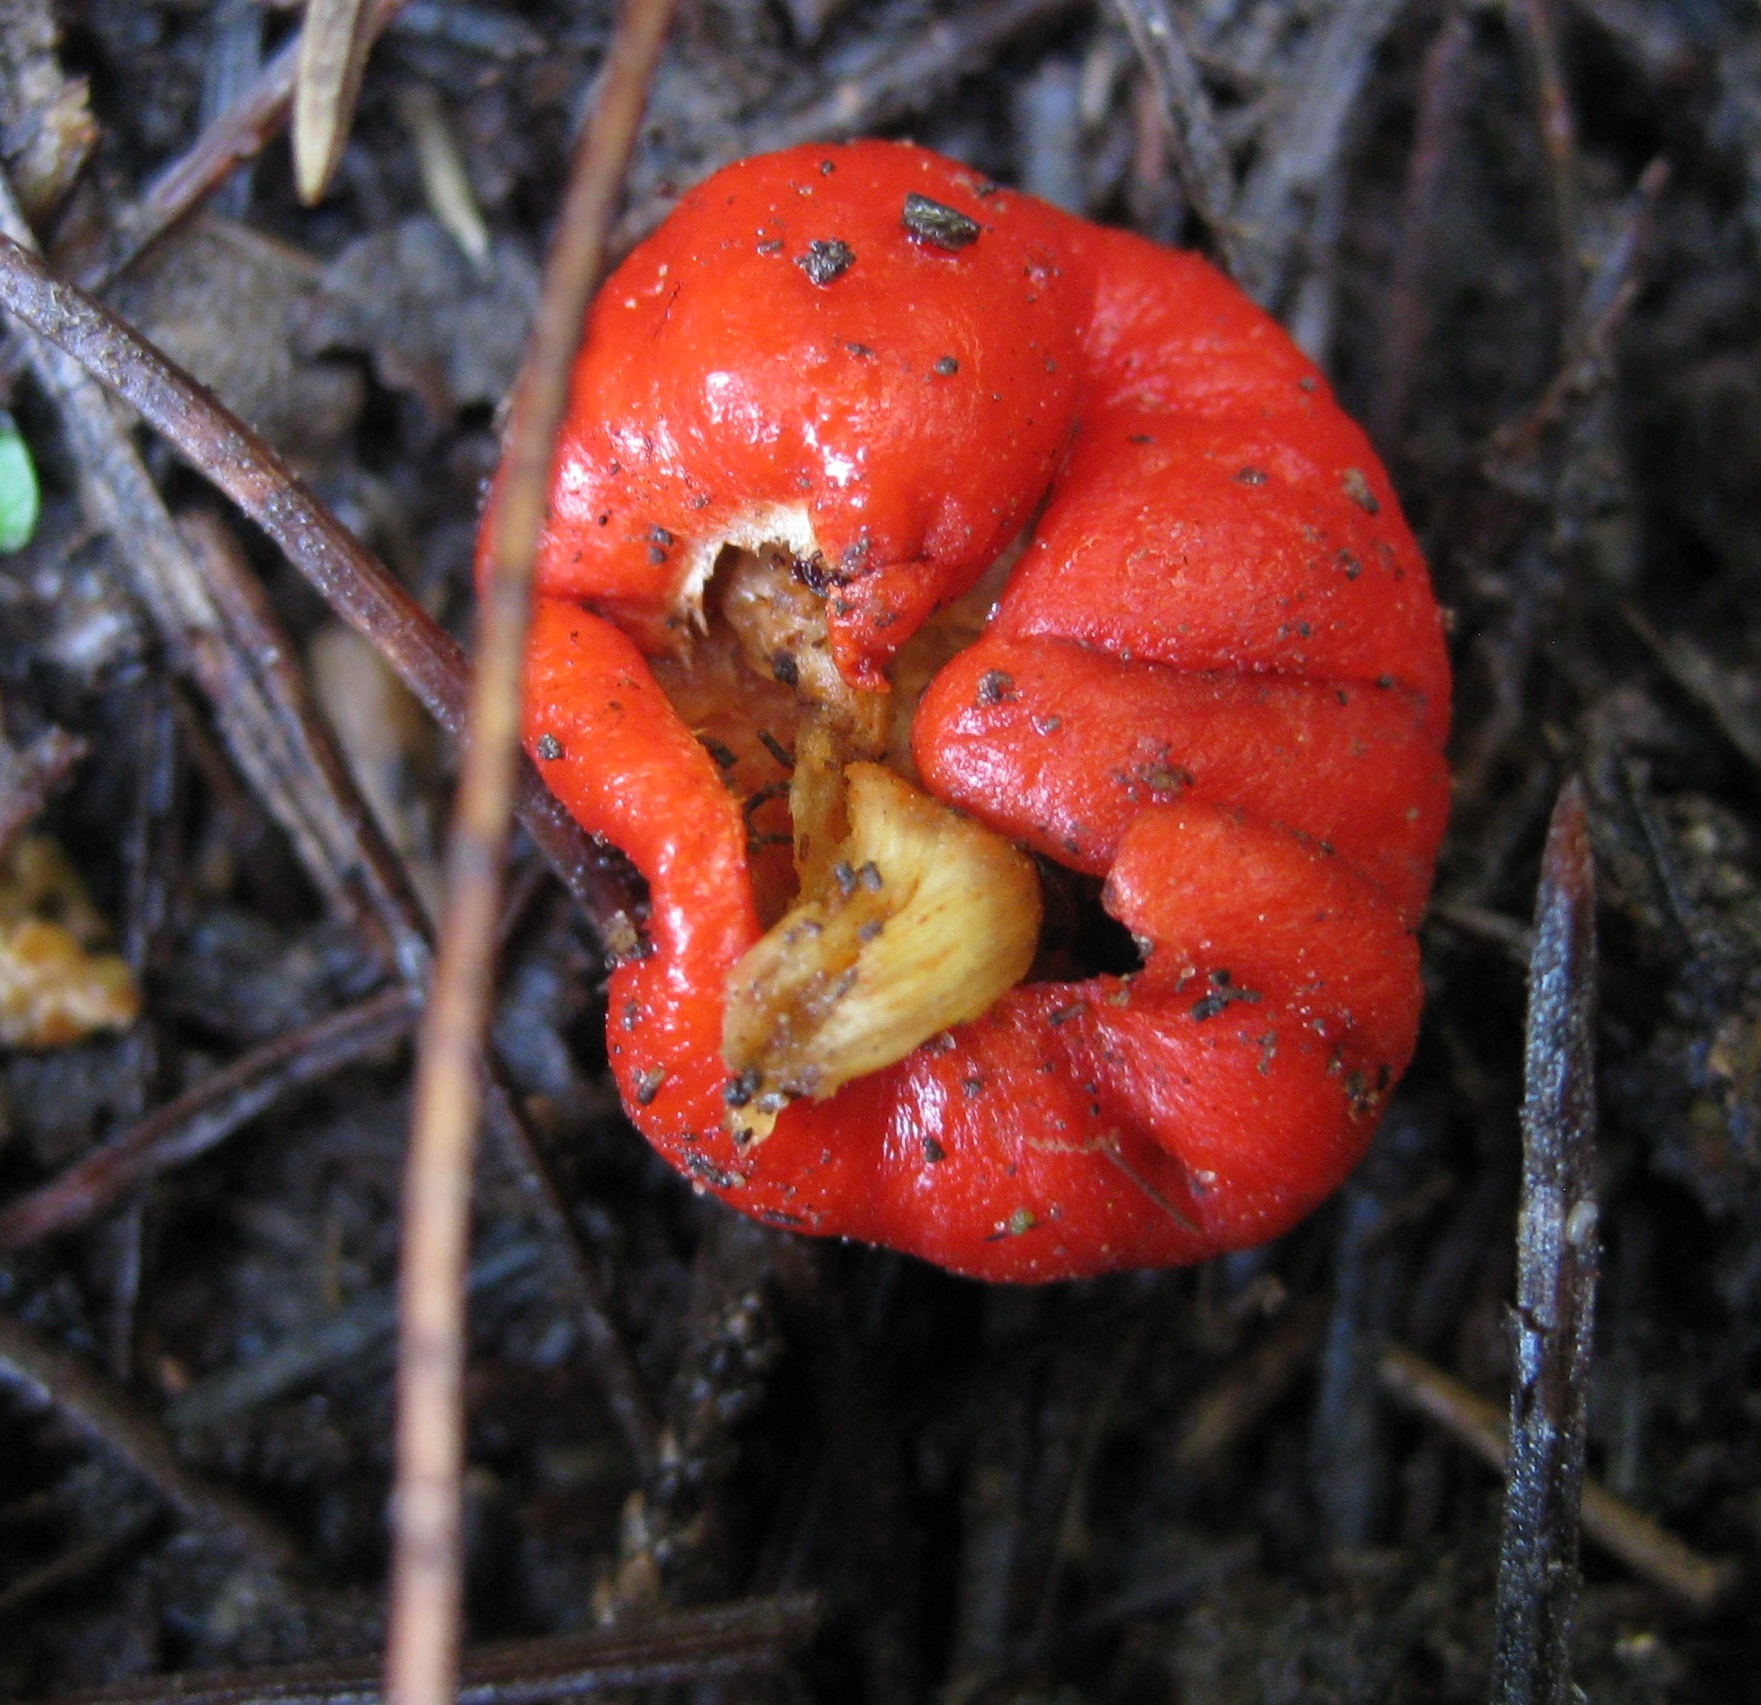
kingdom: Fungi
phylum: Basidiomycota
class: Agaricomycetes
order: Agaricales
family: Strophariaceae
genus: Leratiomyces
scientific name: Leratiomyces erythrocephalus
